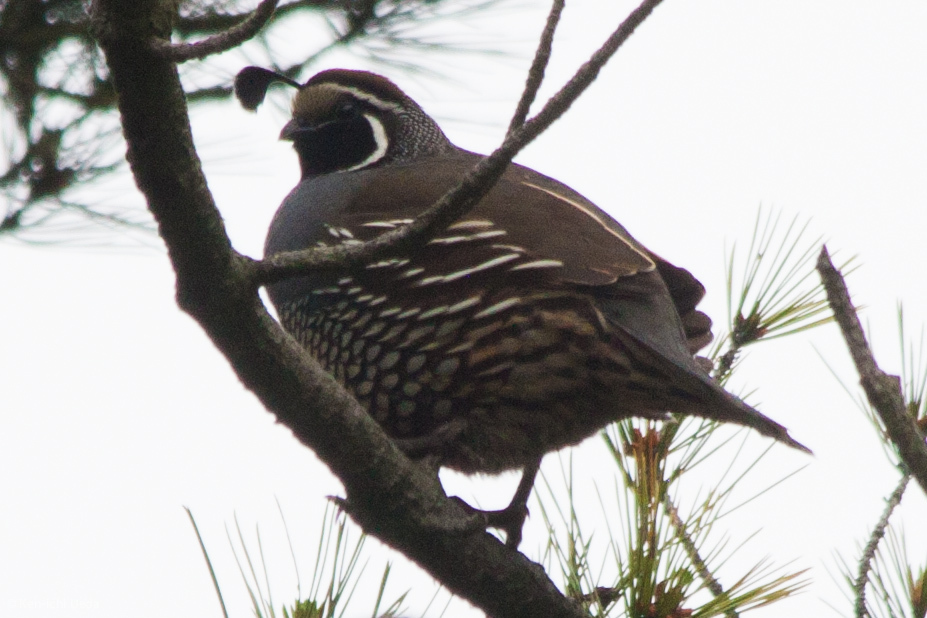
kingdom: Animalia
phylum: Chordata
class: Aves
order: Galliformes
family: Odontophoridae
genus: Callipepla
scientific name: Callipepla californica
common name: California quail
